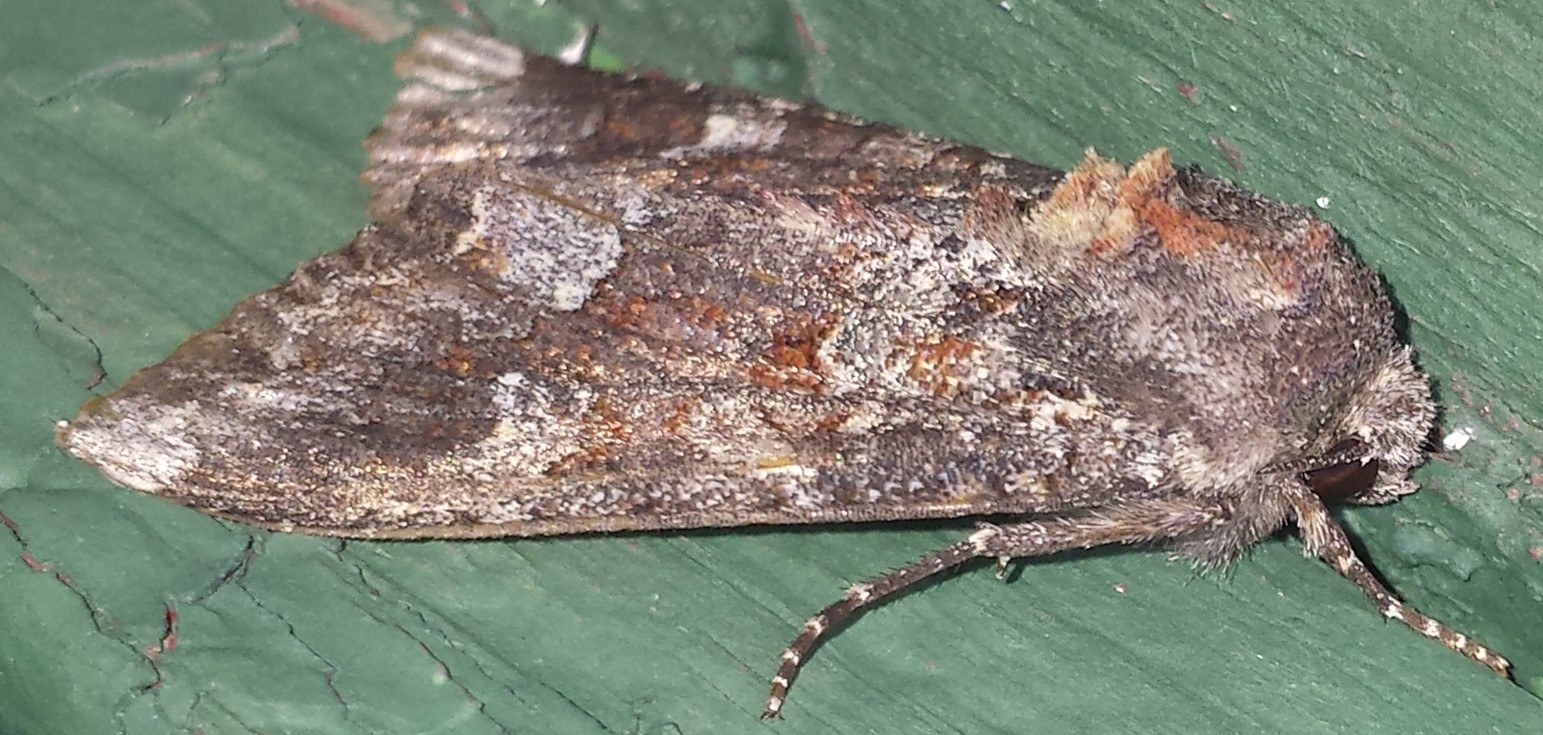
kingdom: Animalia
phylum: Arthropoda
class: Insecta
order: Lepidoptera
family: Noctuidae
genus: Apamea
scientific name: Apamea amputatrix
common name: Yellow-headed cutworm moth
